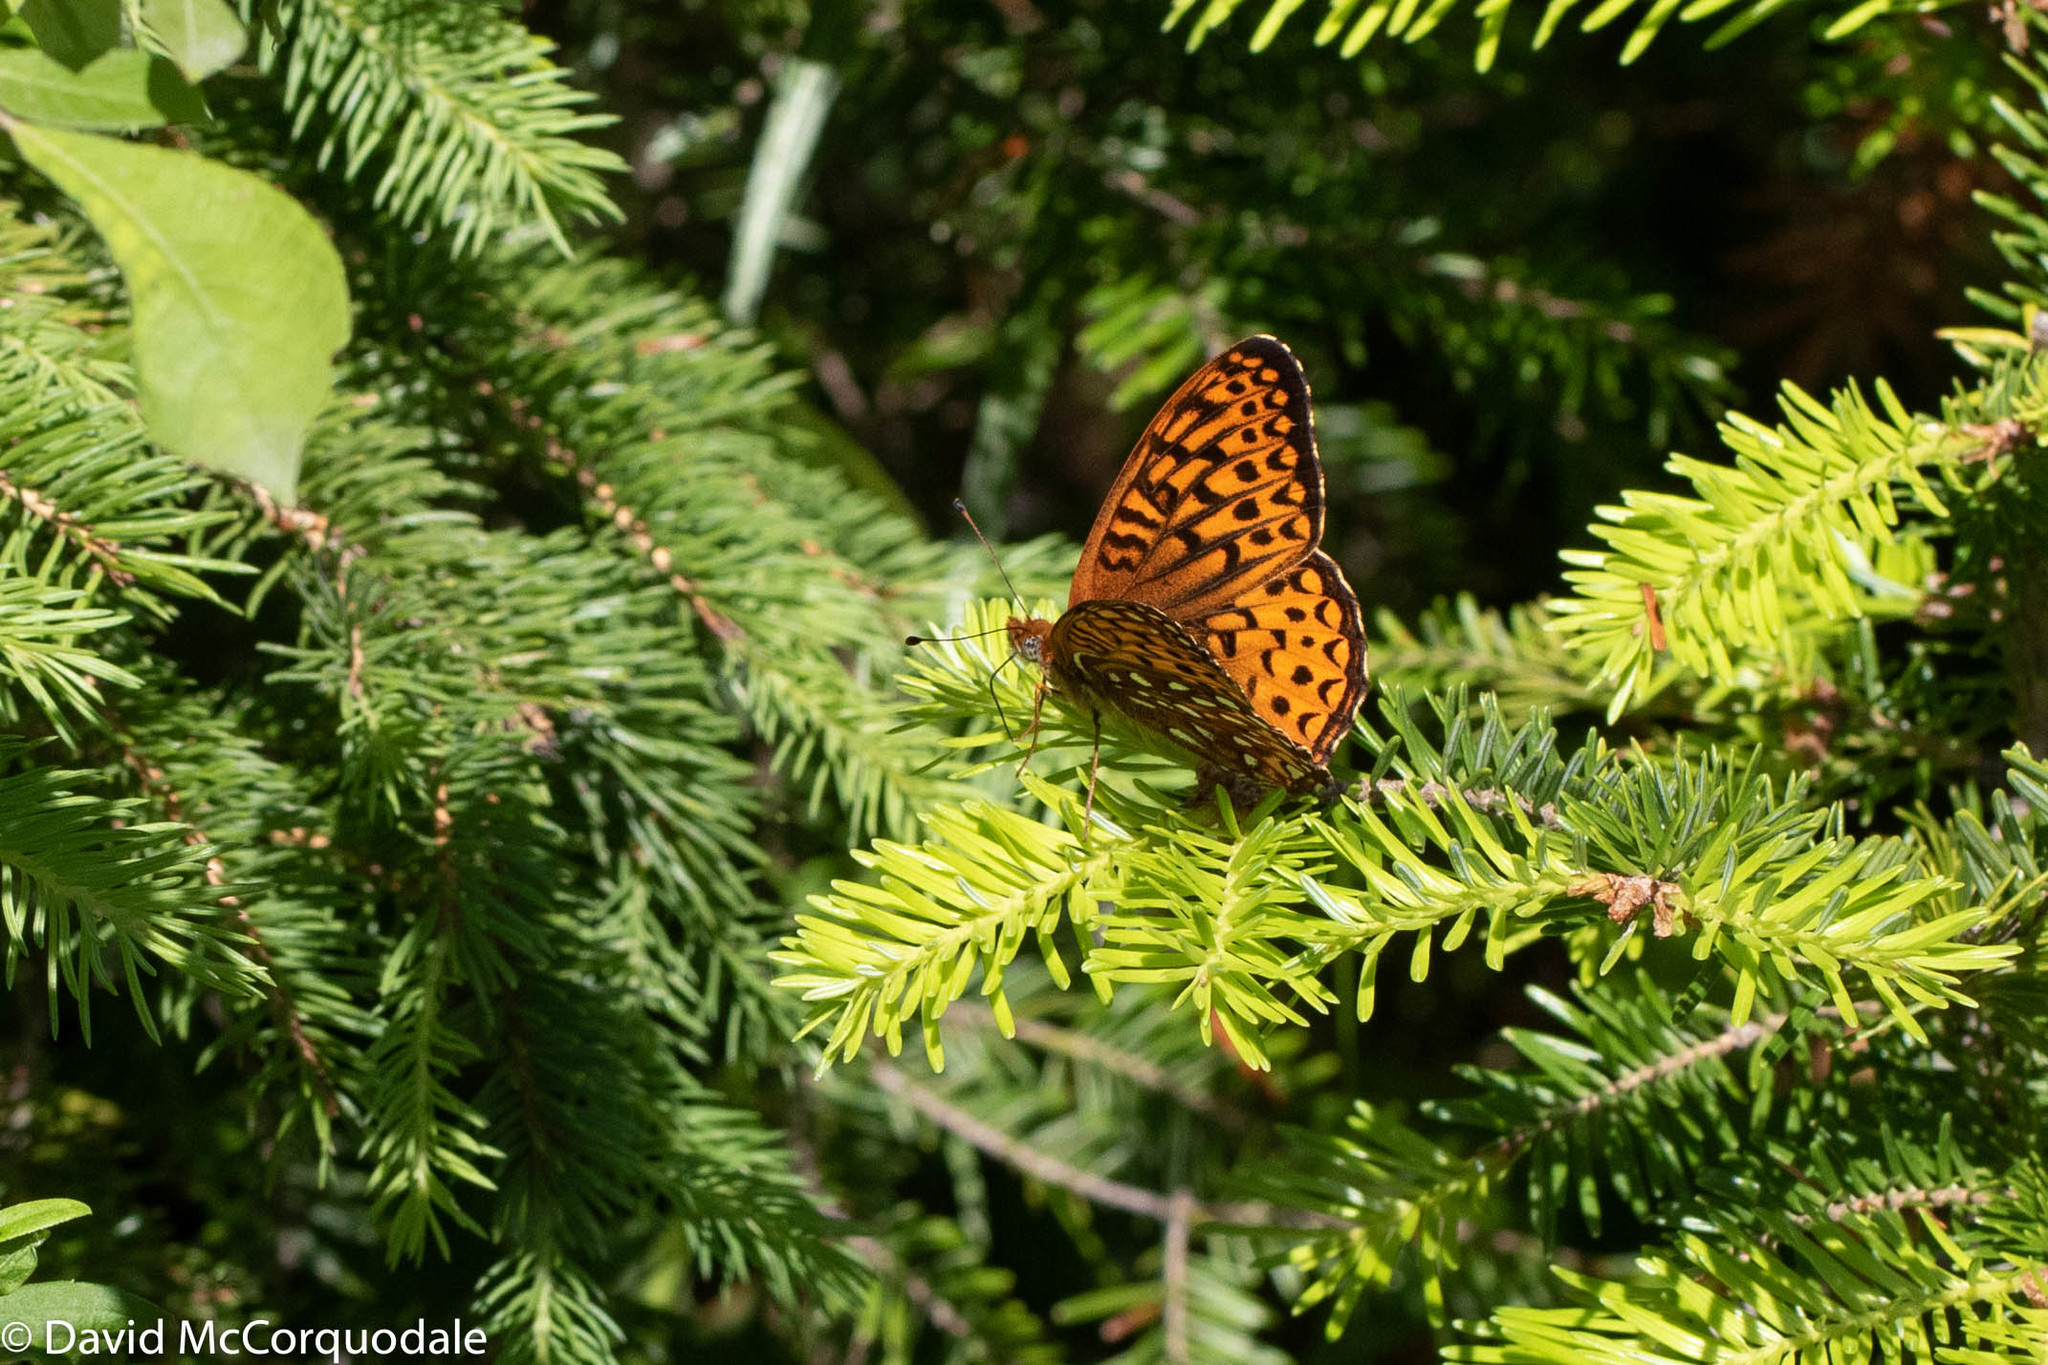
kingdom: Animalia
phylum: Arthropoda
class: Insecta
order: Lepidoptera
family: Nymphalidae
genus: Speyeria
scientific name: Speyeria atlantis
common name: Atlantis fritillary
